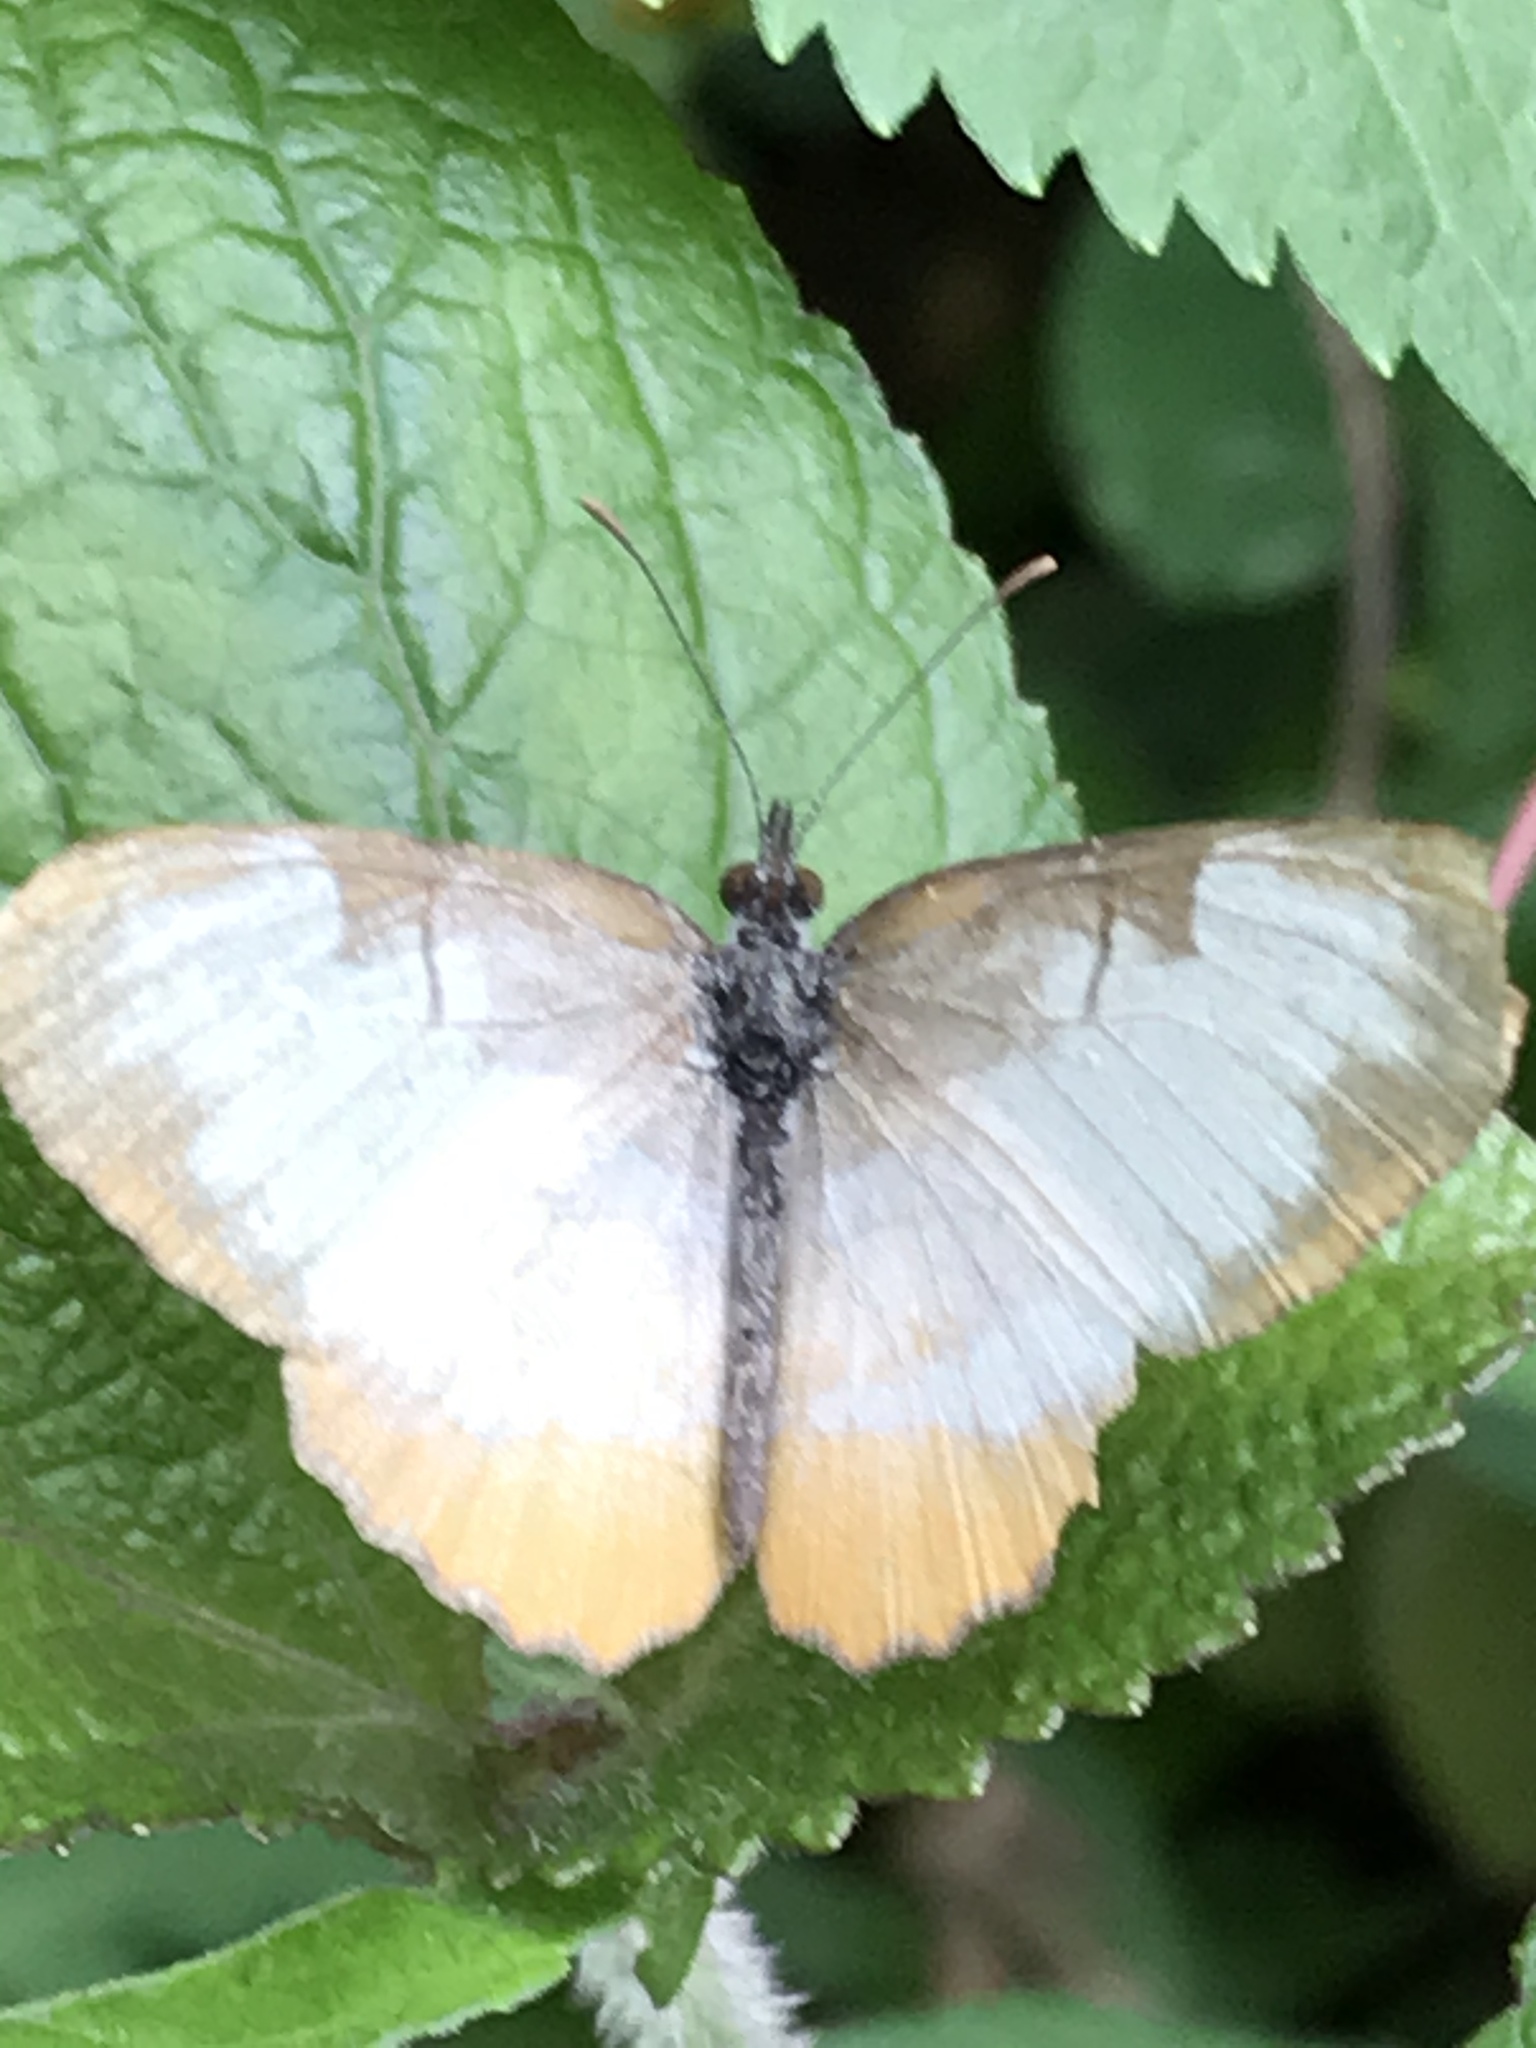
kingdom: Animalia
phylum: Arthropoda
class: Insecta
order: Lepidoptera
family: Nymphalidae
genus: Mestra
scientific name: Mestra amymone
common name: Common mestra
